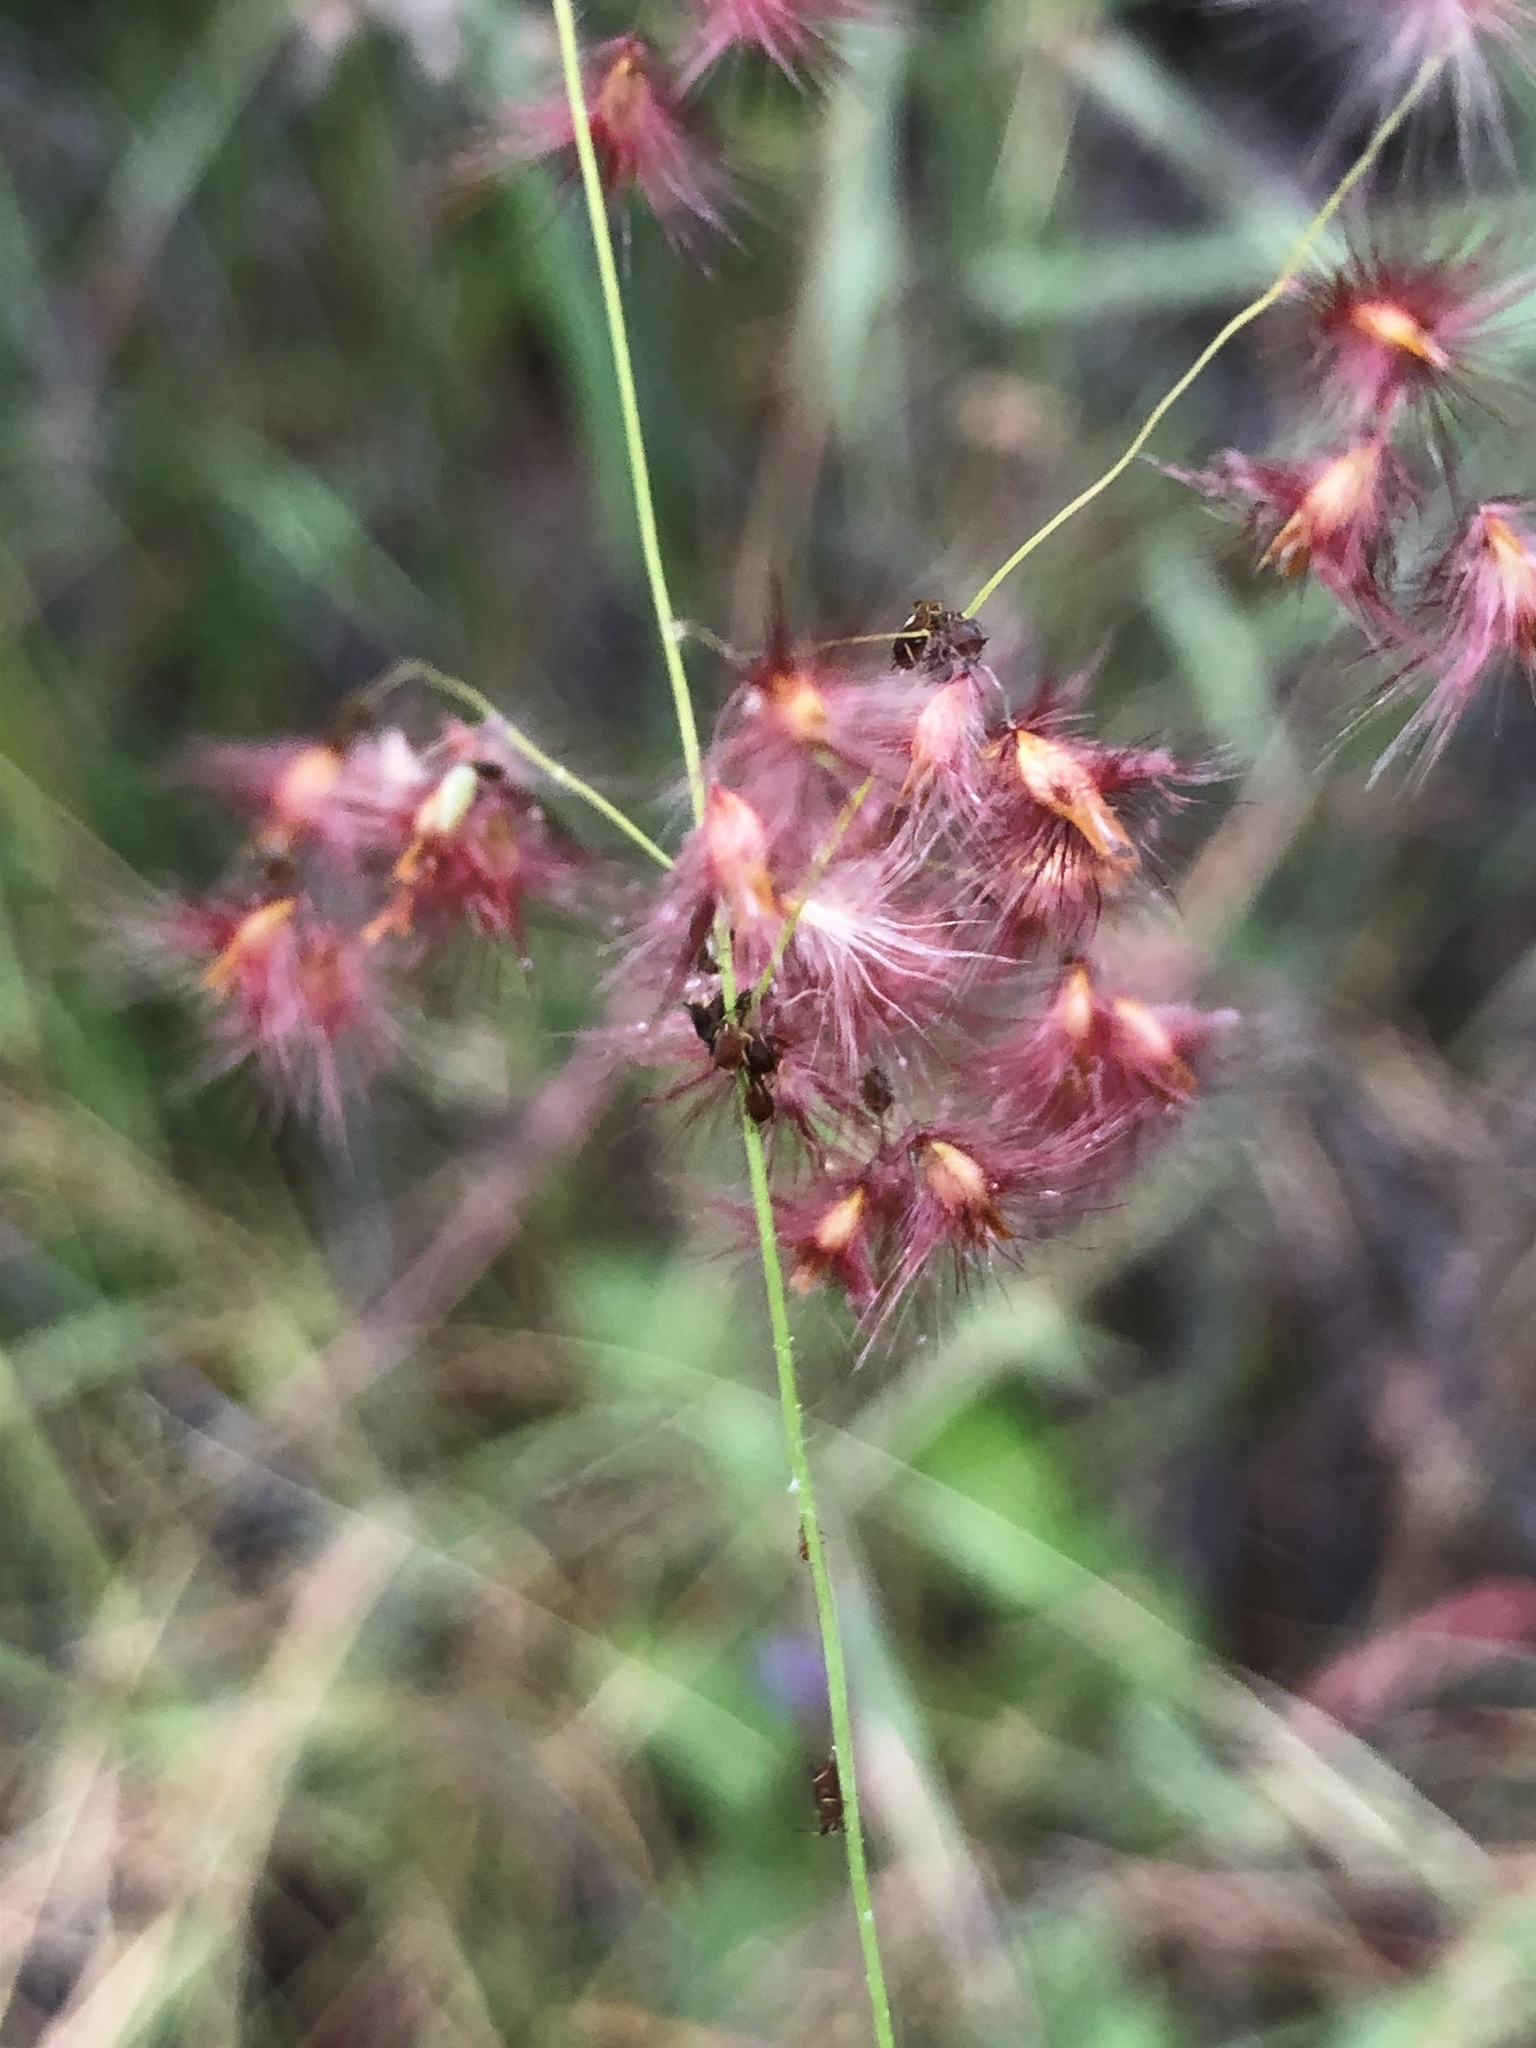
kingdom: Plantae
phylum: Tracheophyta
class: Liliopsida
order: Poales
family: Poaceae
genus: Melinis
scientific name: Melinis repens
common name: Rose natal grass
